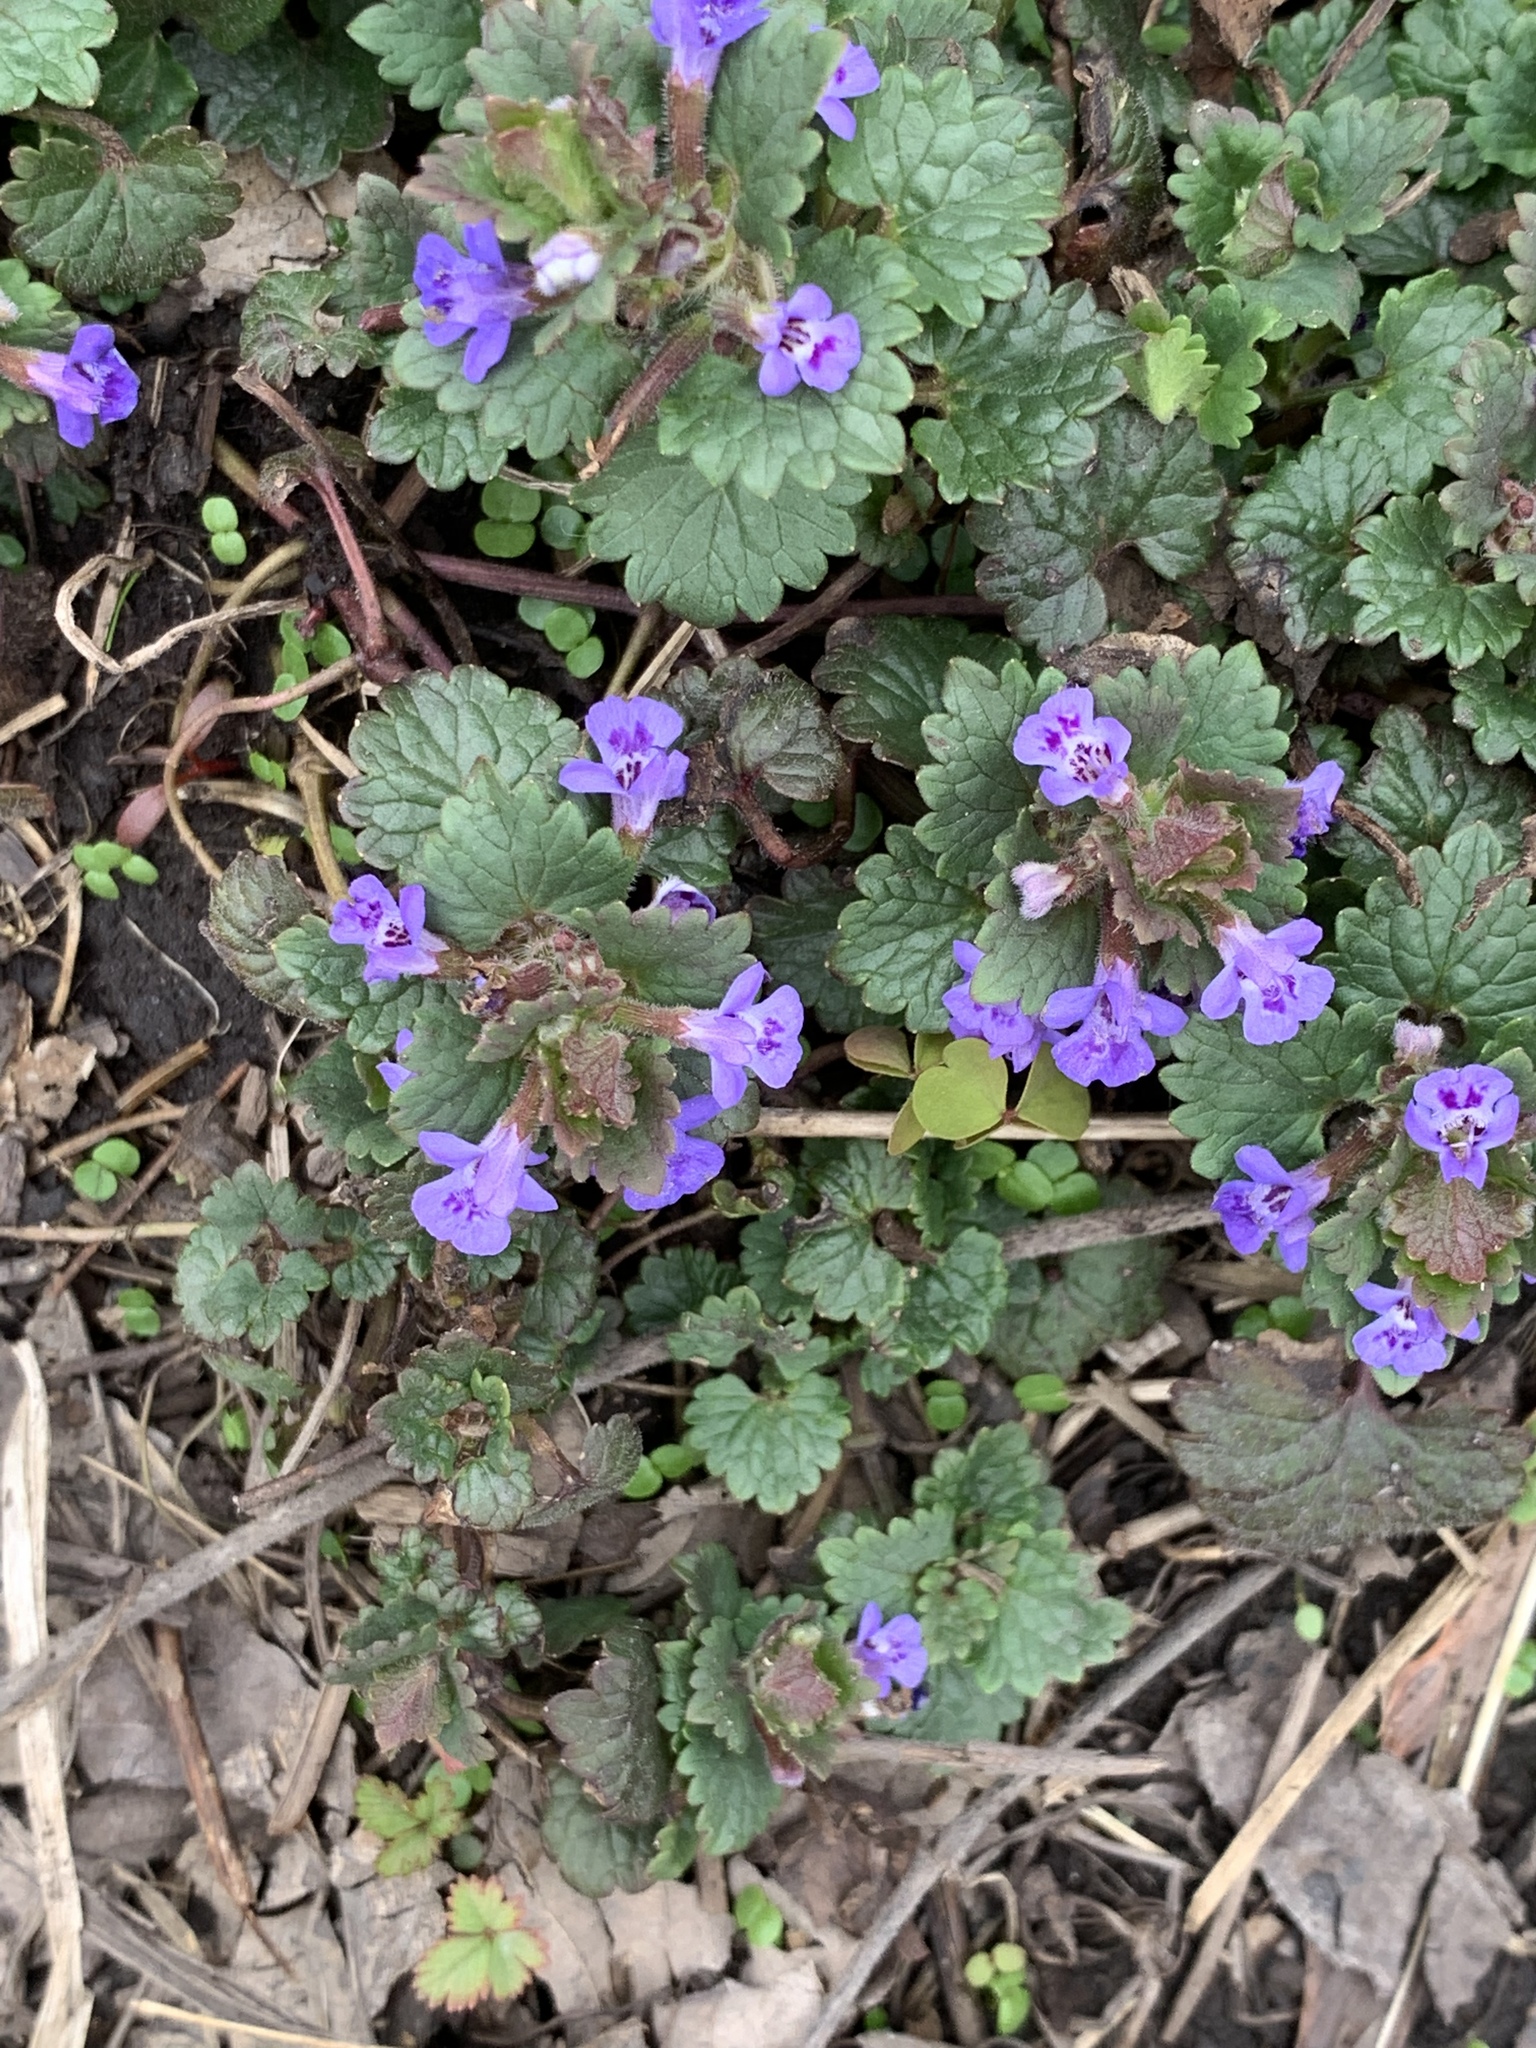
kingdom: Plantae
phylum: Tracheophyta
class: Magnoliopsida
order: Lamiales
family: Lamiaceae
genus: Glechoma
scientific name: Glechoma hederacea
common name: Ground ivy
